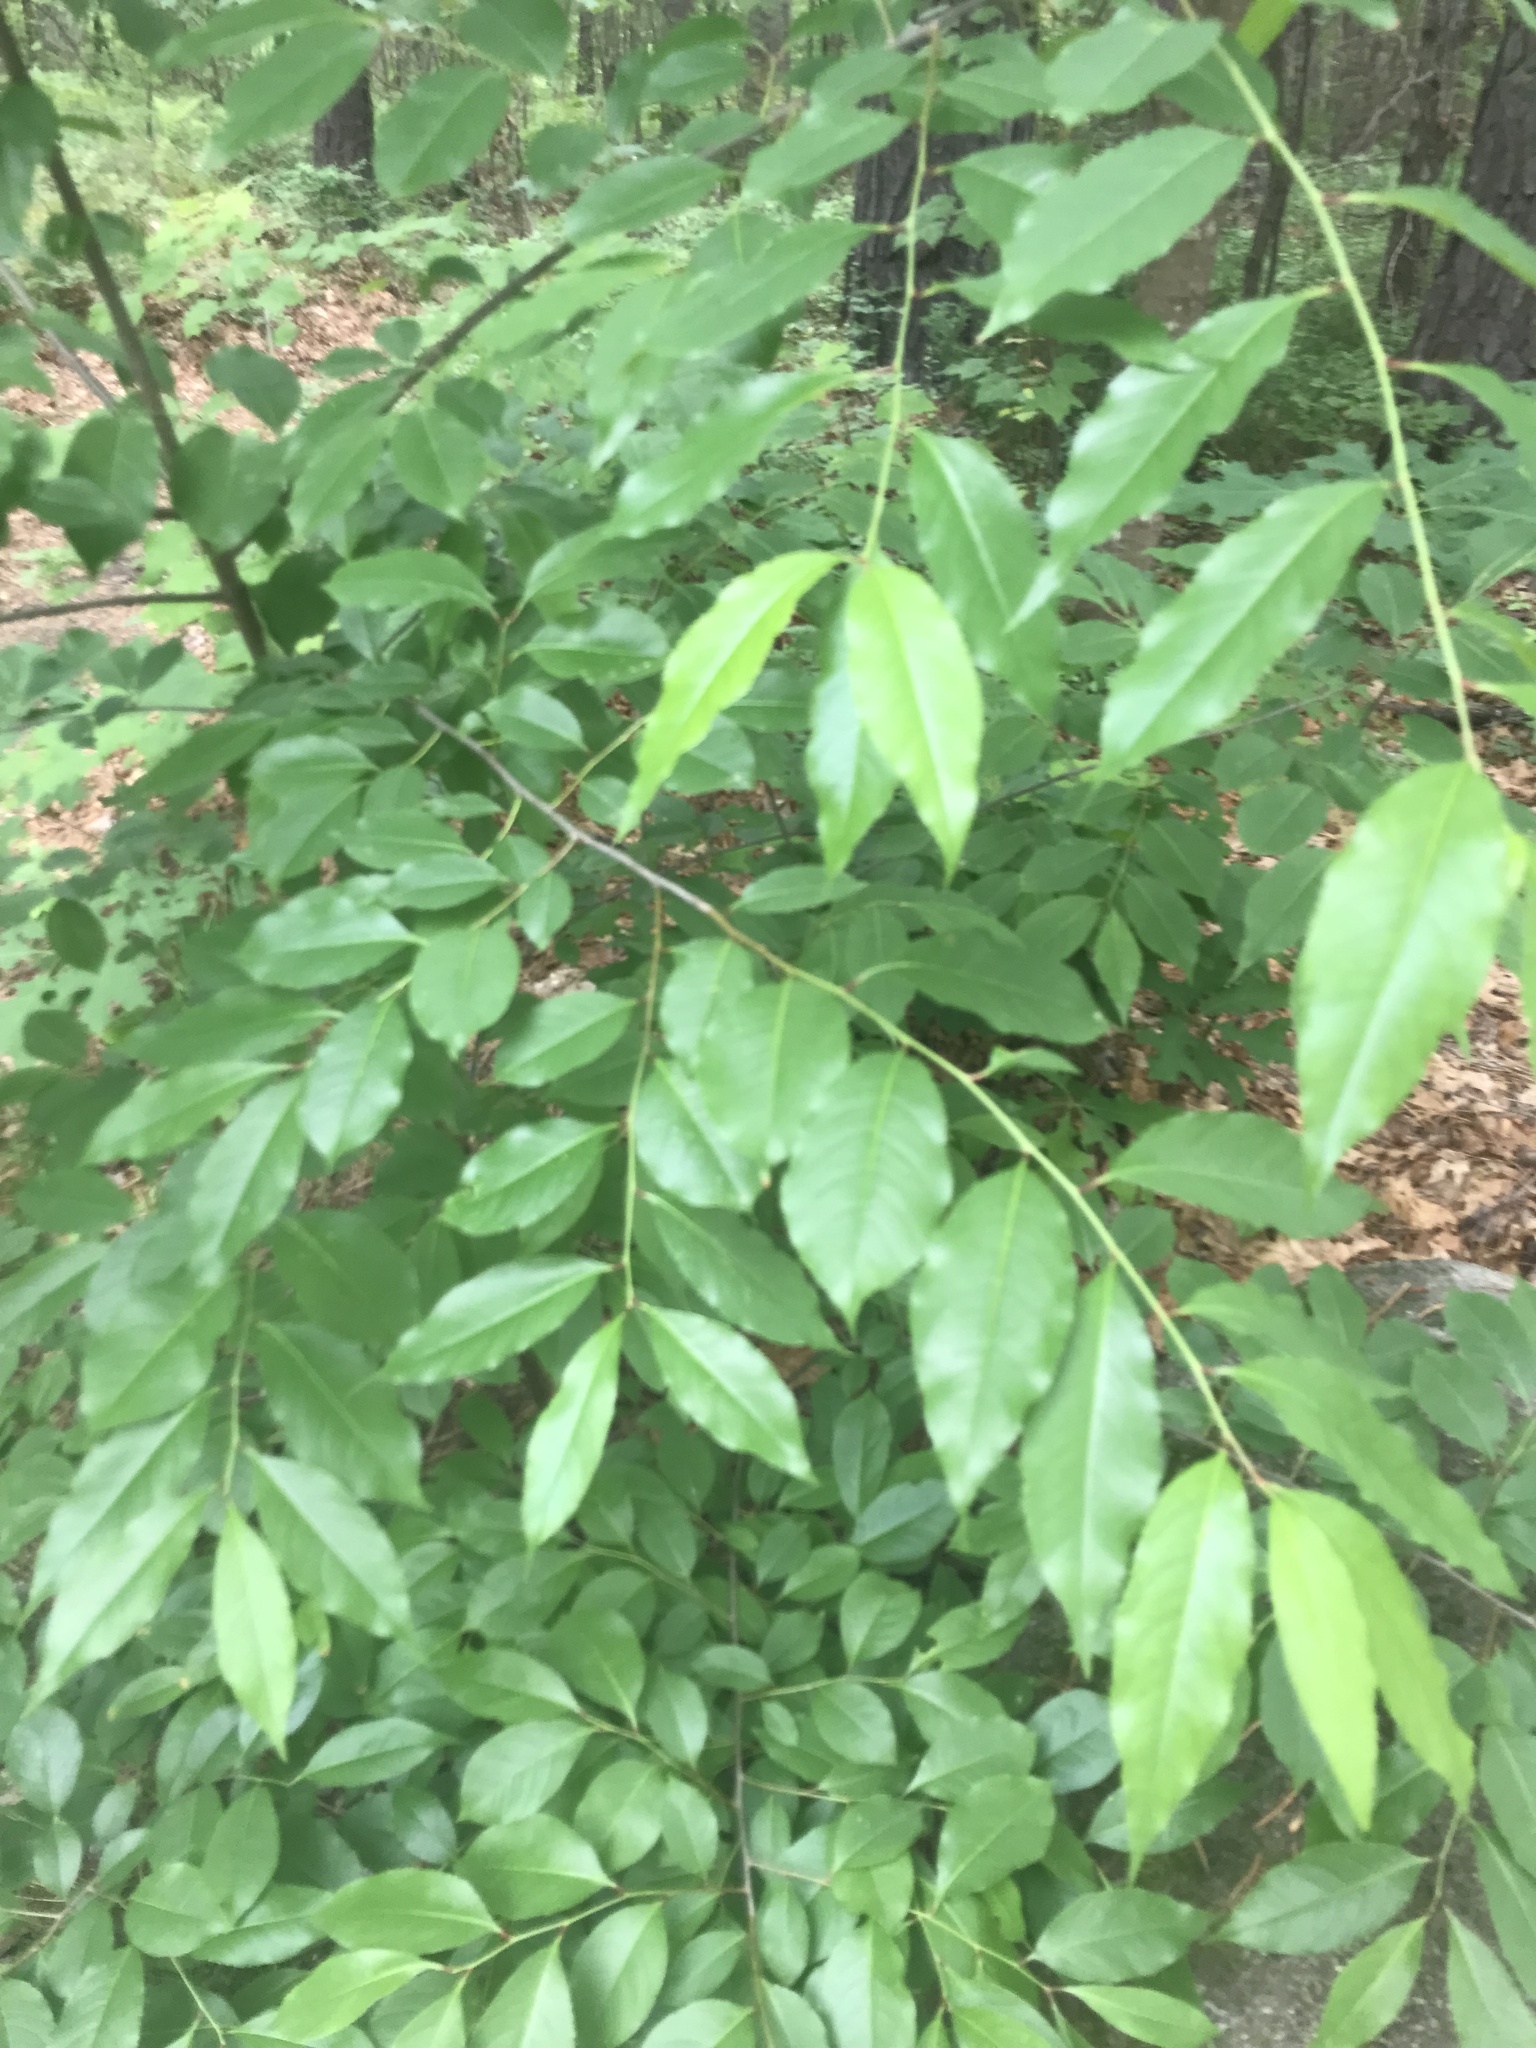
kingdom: Plantae
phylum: Tracheophyta
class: Magnoliopsida
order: Rosales
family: Rosaceae
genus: Prunus
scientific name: Prunus serotina
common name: Black cherry
